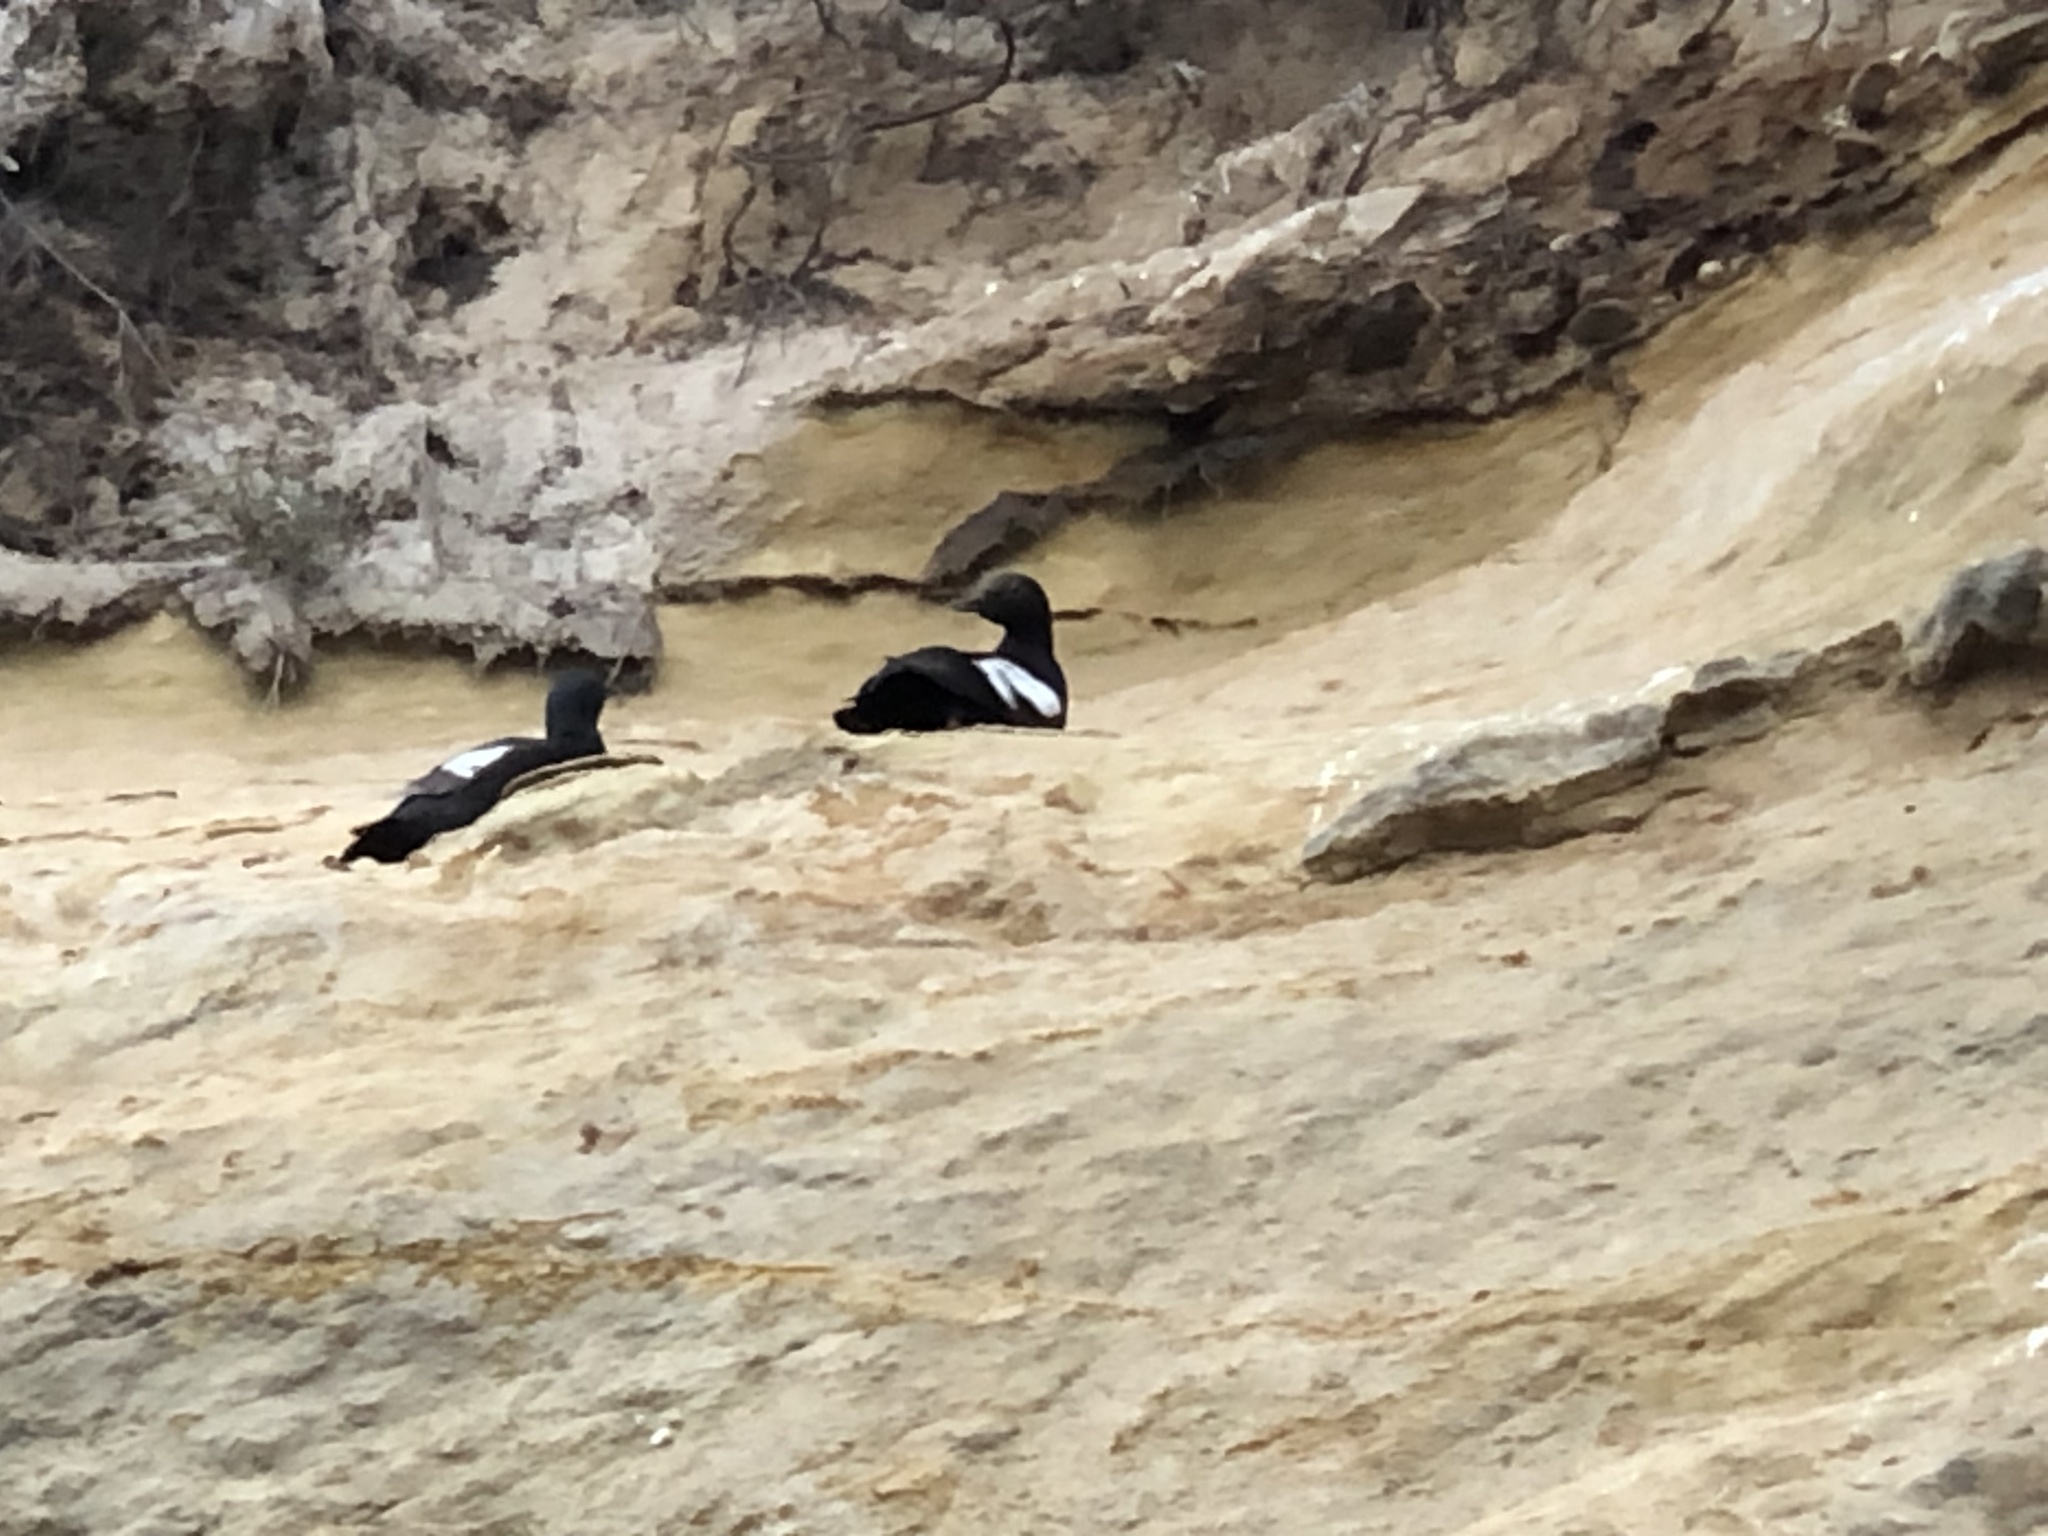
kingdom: Animalia
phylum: Chordata
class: Aves
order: Charadriiformes
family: Alcidae
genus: Cepphus
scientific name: Cepphus columba
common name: Pigeon guillemot
